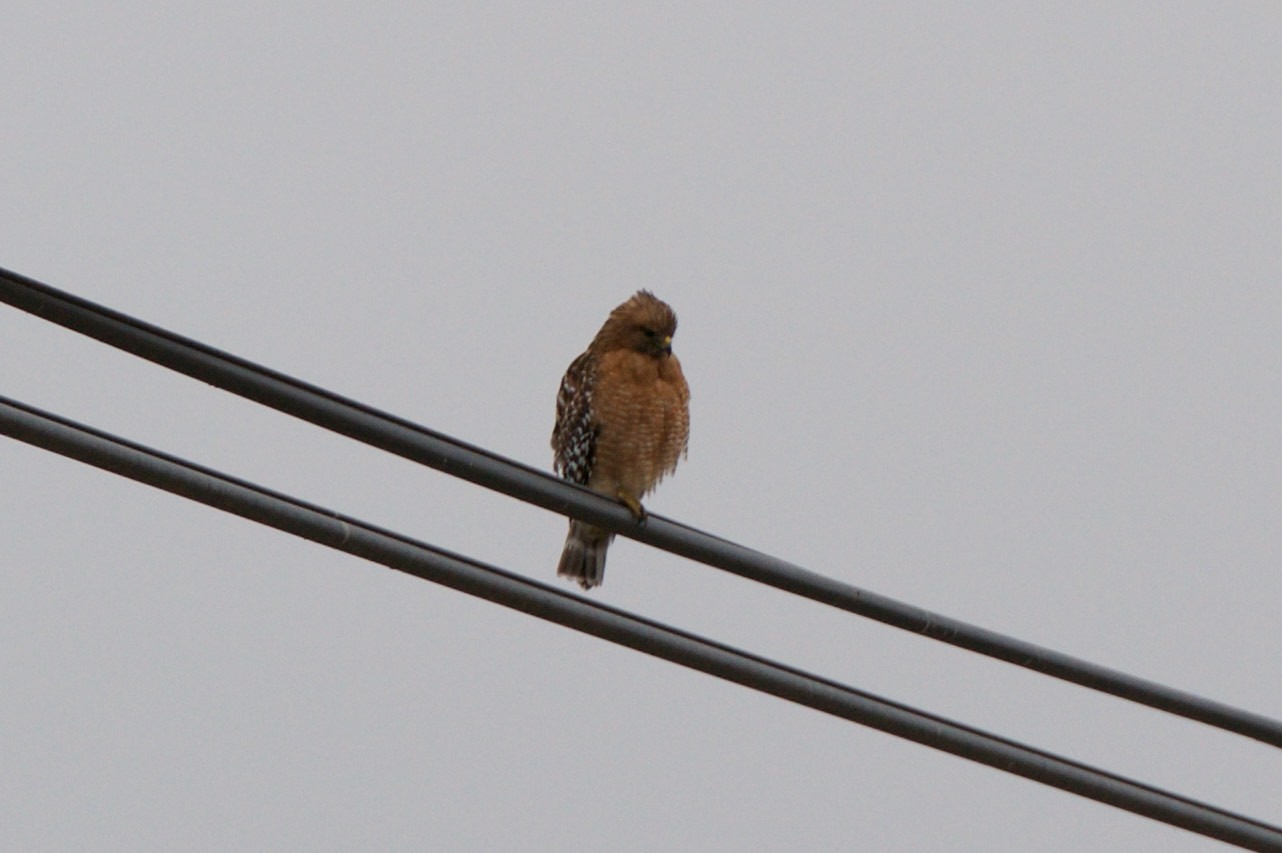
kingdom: Animalia
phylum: Chordata
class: Aves
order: Accipitriformes
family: Accipitridae
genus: Buteo
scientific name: Buteo lineatus
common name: Red-shouldered hawk
